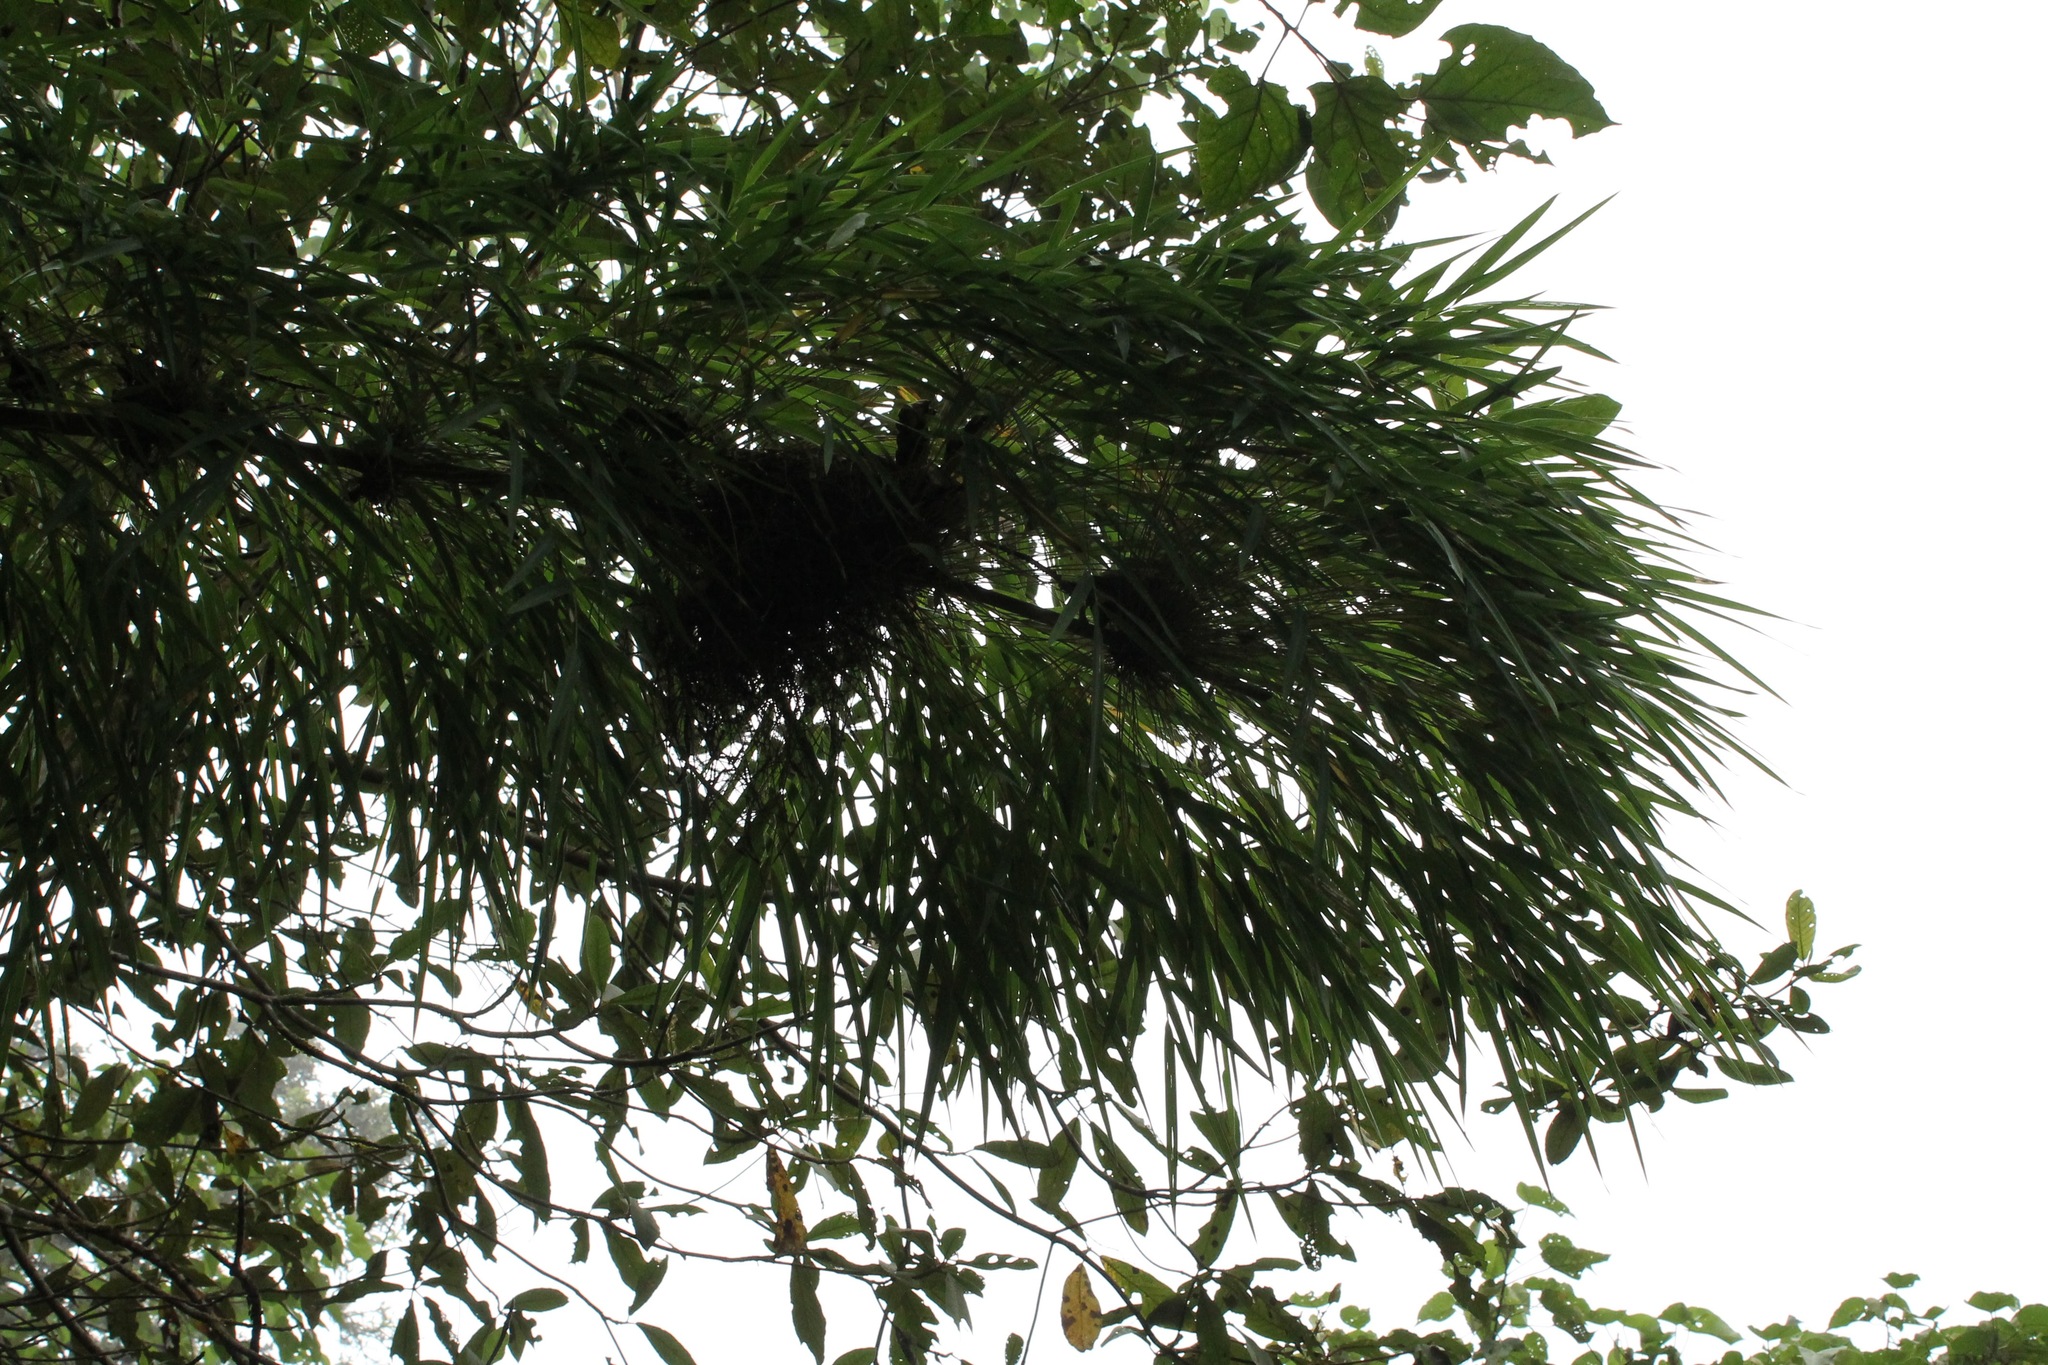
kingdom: Plantae
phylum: Tracheophyta
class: Liliopsida
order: Poales
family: Poaceae
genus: Chusquea
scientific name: Chusquea circinata
